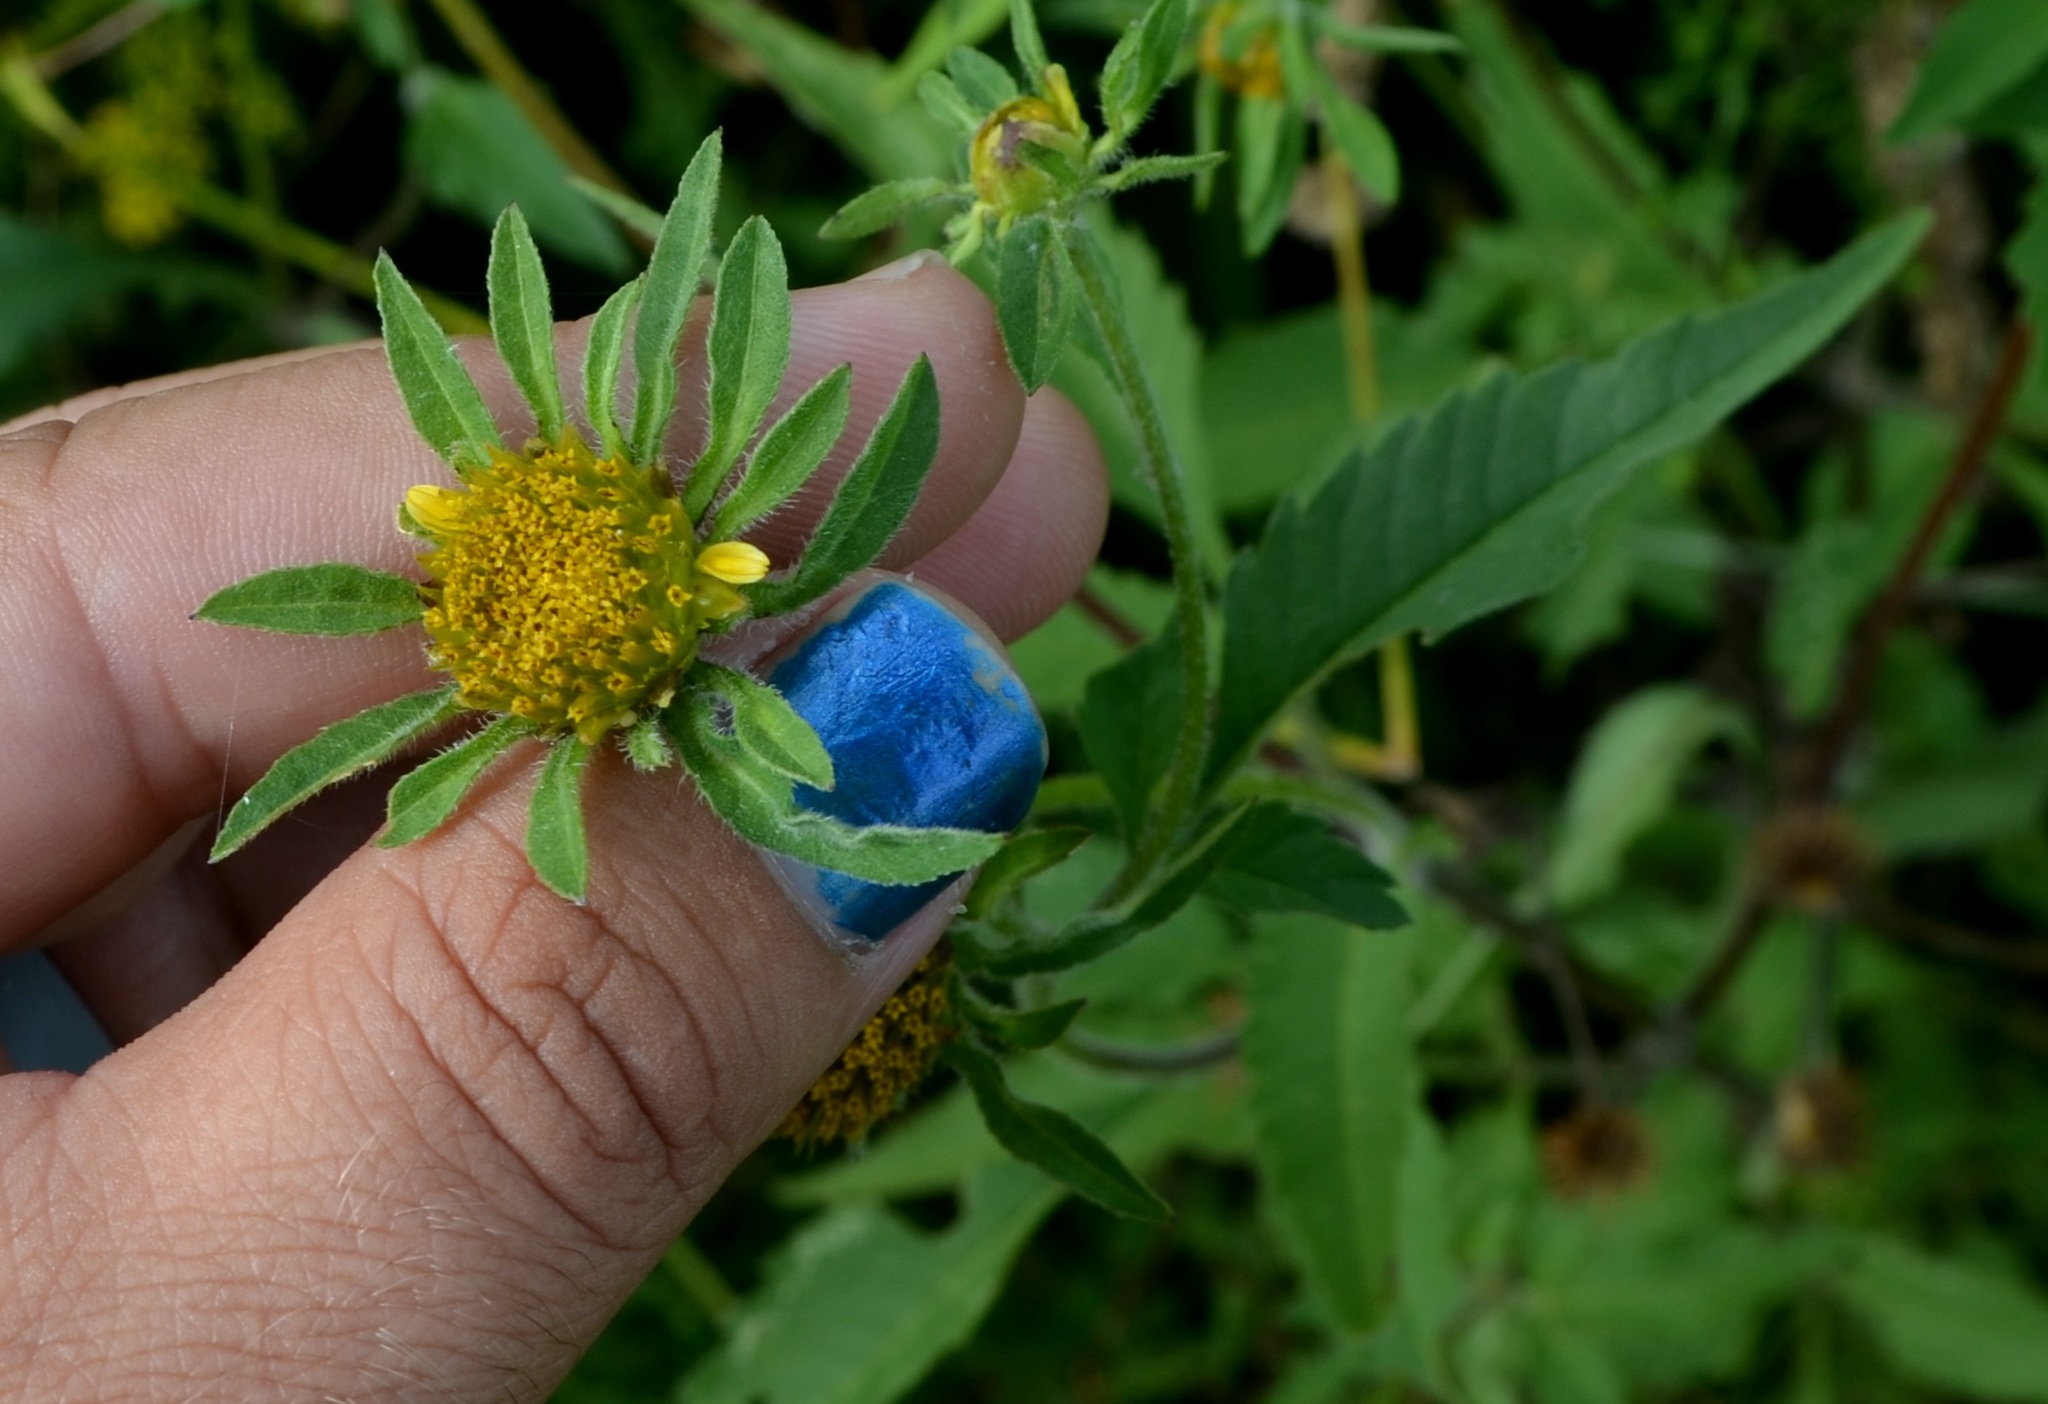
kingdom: Plantae
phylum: Tracheophyta
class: Magnoliopsida
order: Asterales
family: Asteraceae
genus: Bidens
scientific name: Bidens vulgata
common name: Tall beggarticks
